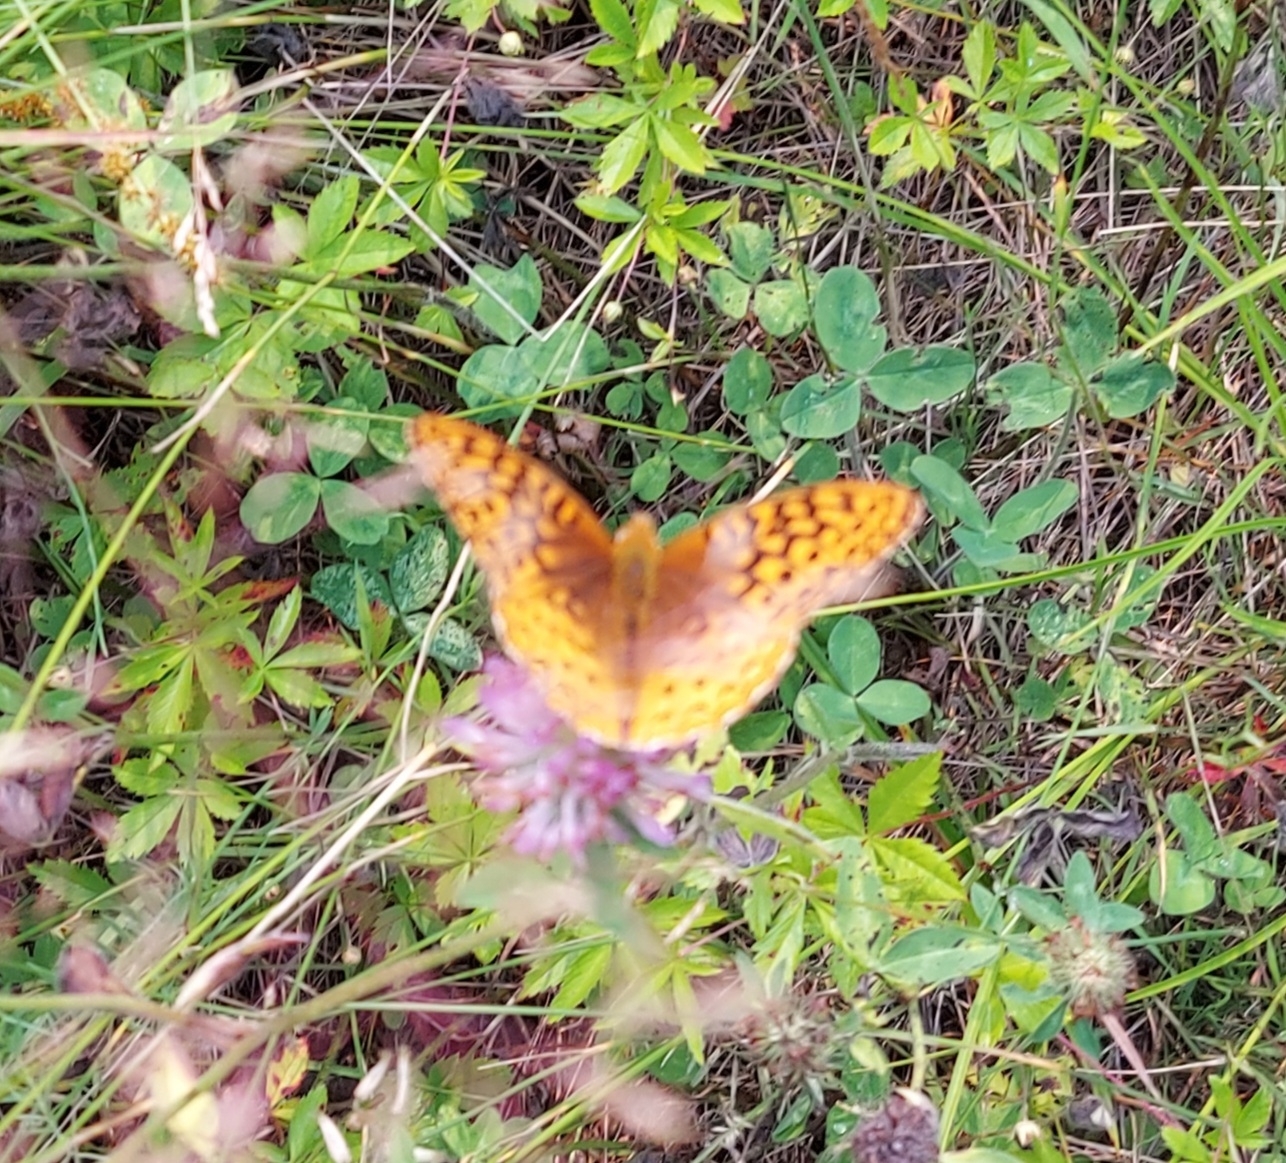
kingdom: Animalia
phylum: Arthropoda
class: Insecta
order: Lepidoptera
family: Nymphalidae
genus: Speyeria
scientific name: Speyeria cybele
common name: Great spangled fritillary
